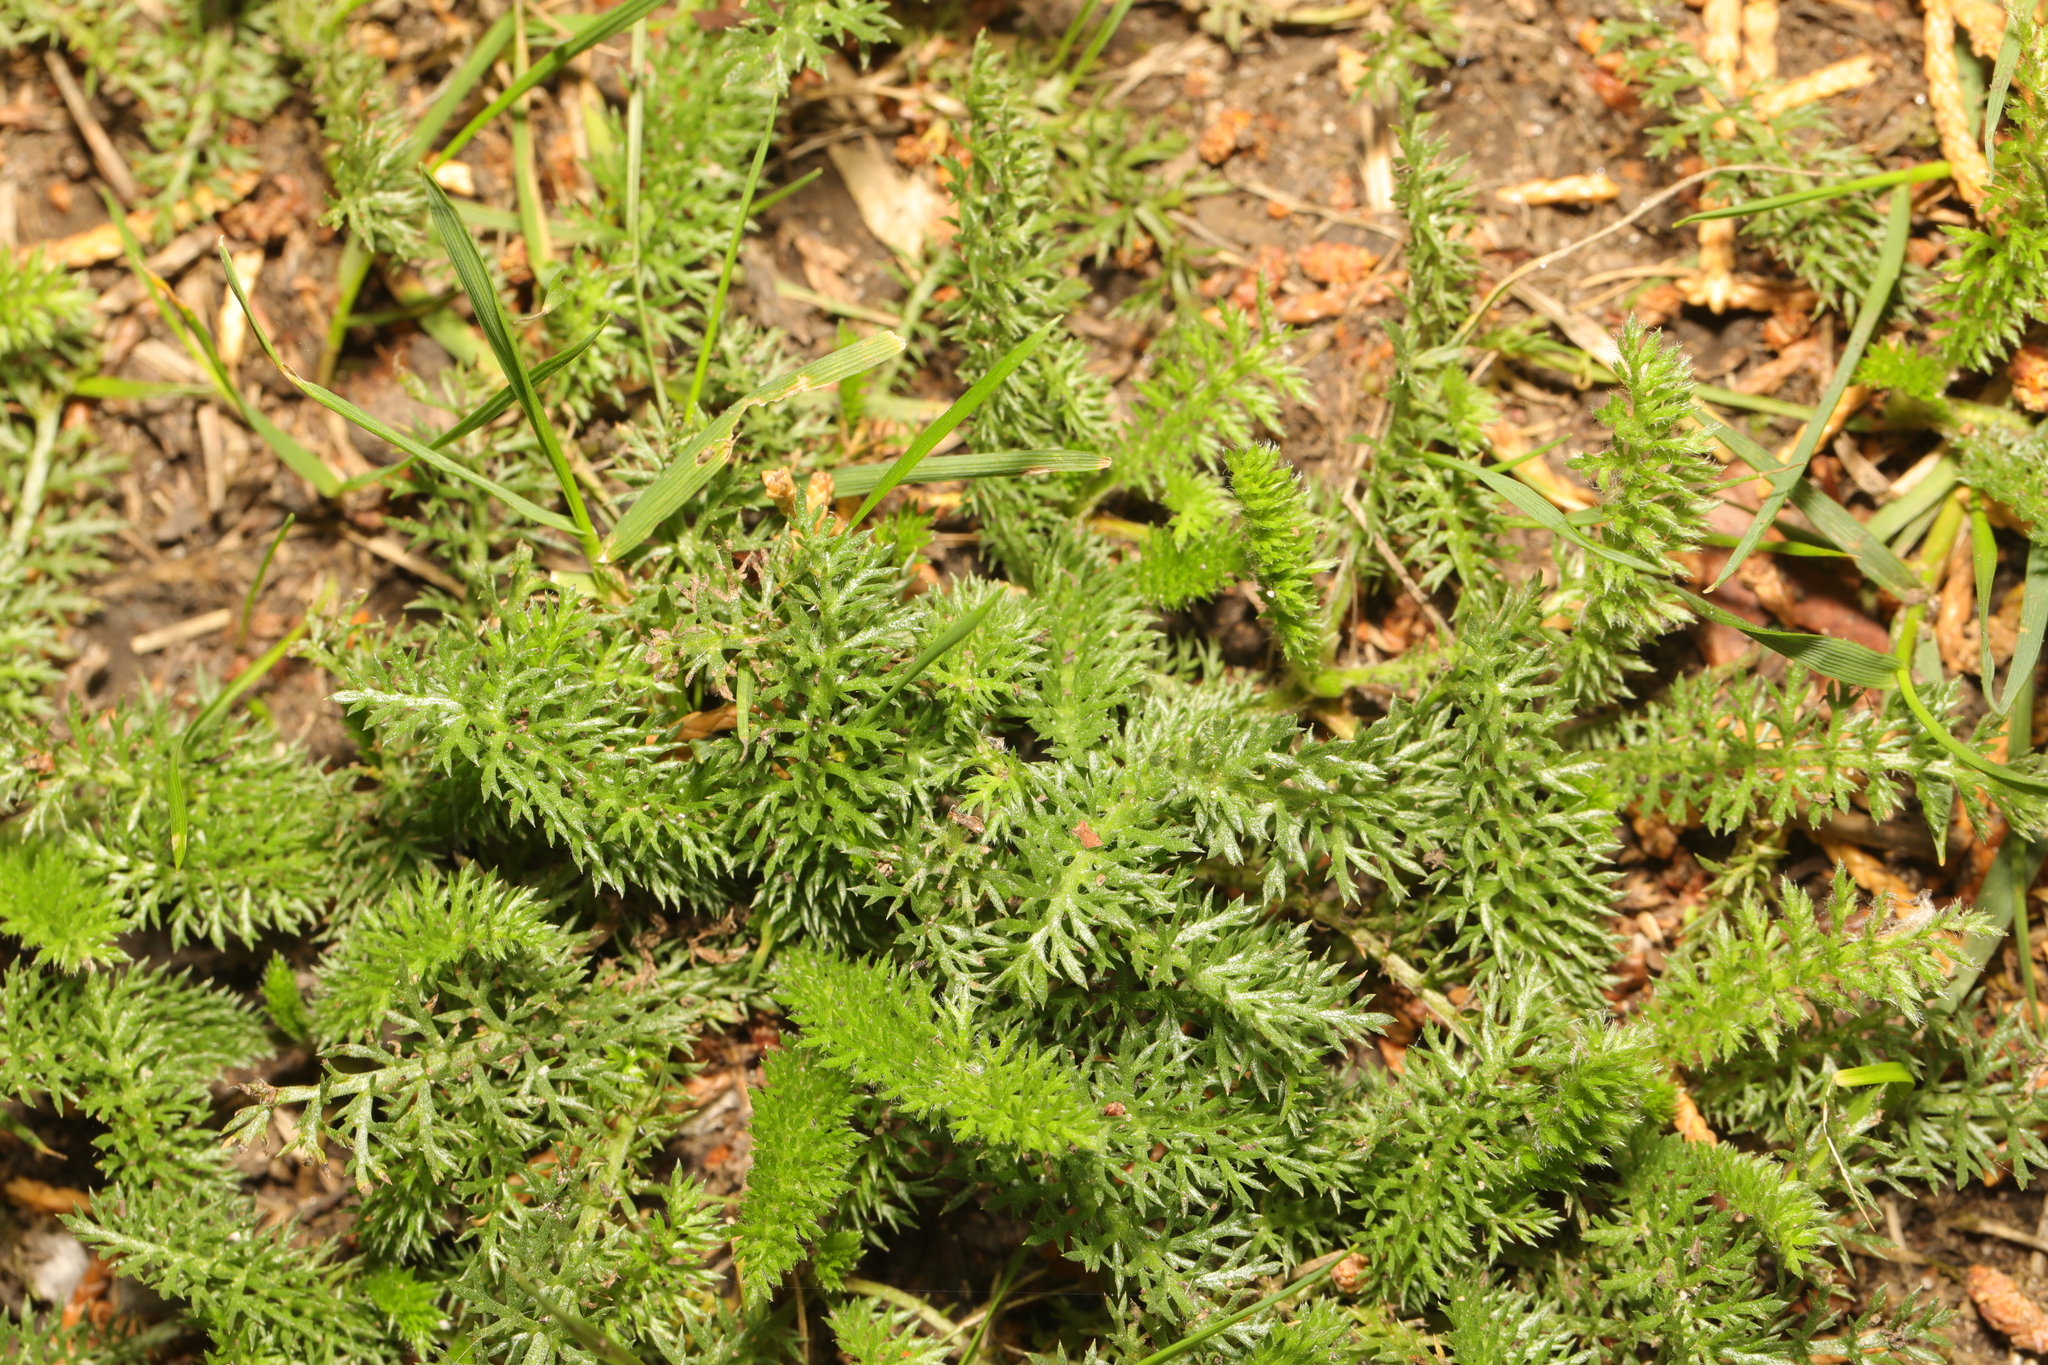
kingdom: Plantae
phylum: Tracheophyta
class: Magnoliopsida
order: Asterales
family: Asteraceae
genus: Achillea
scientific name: Achillea millefolium
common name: Yarrow
